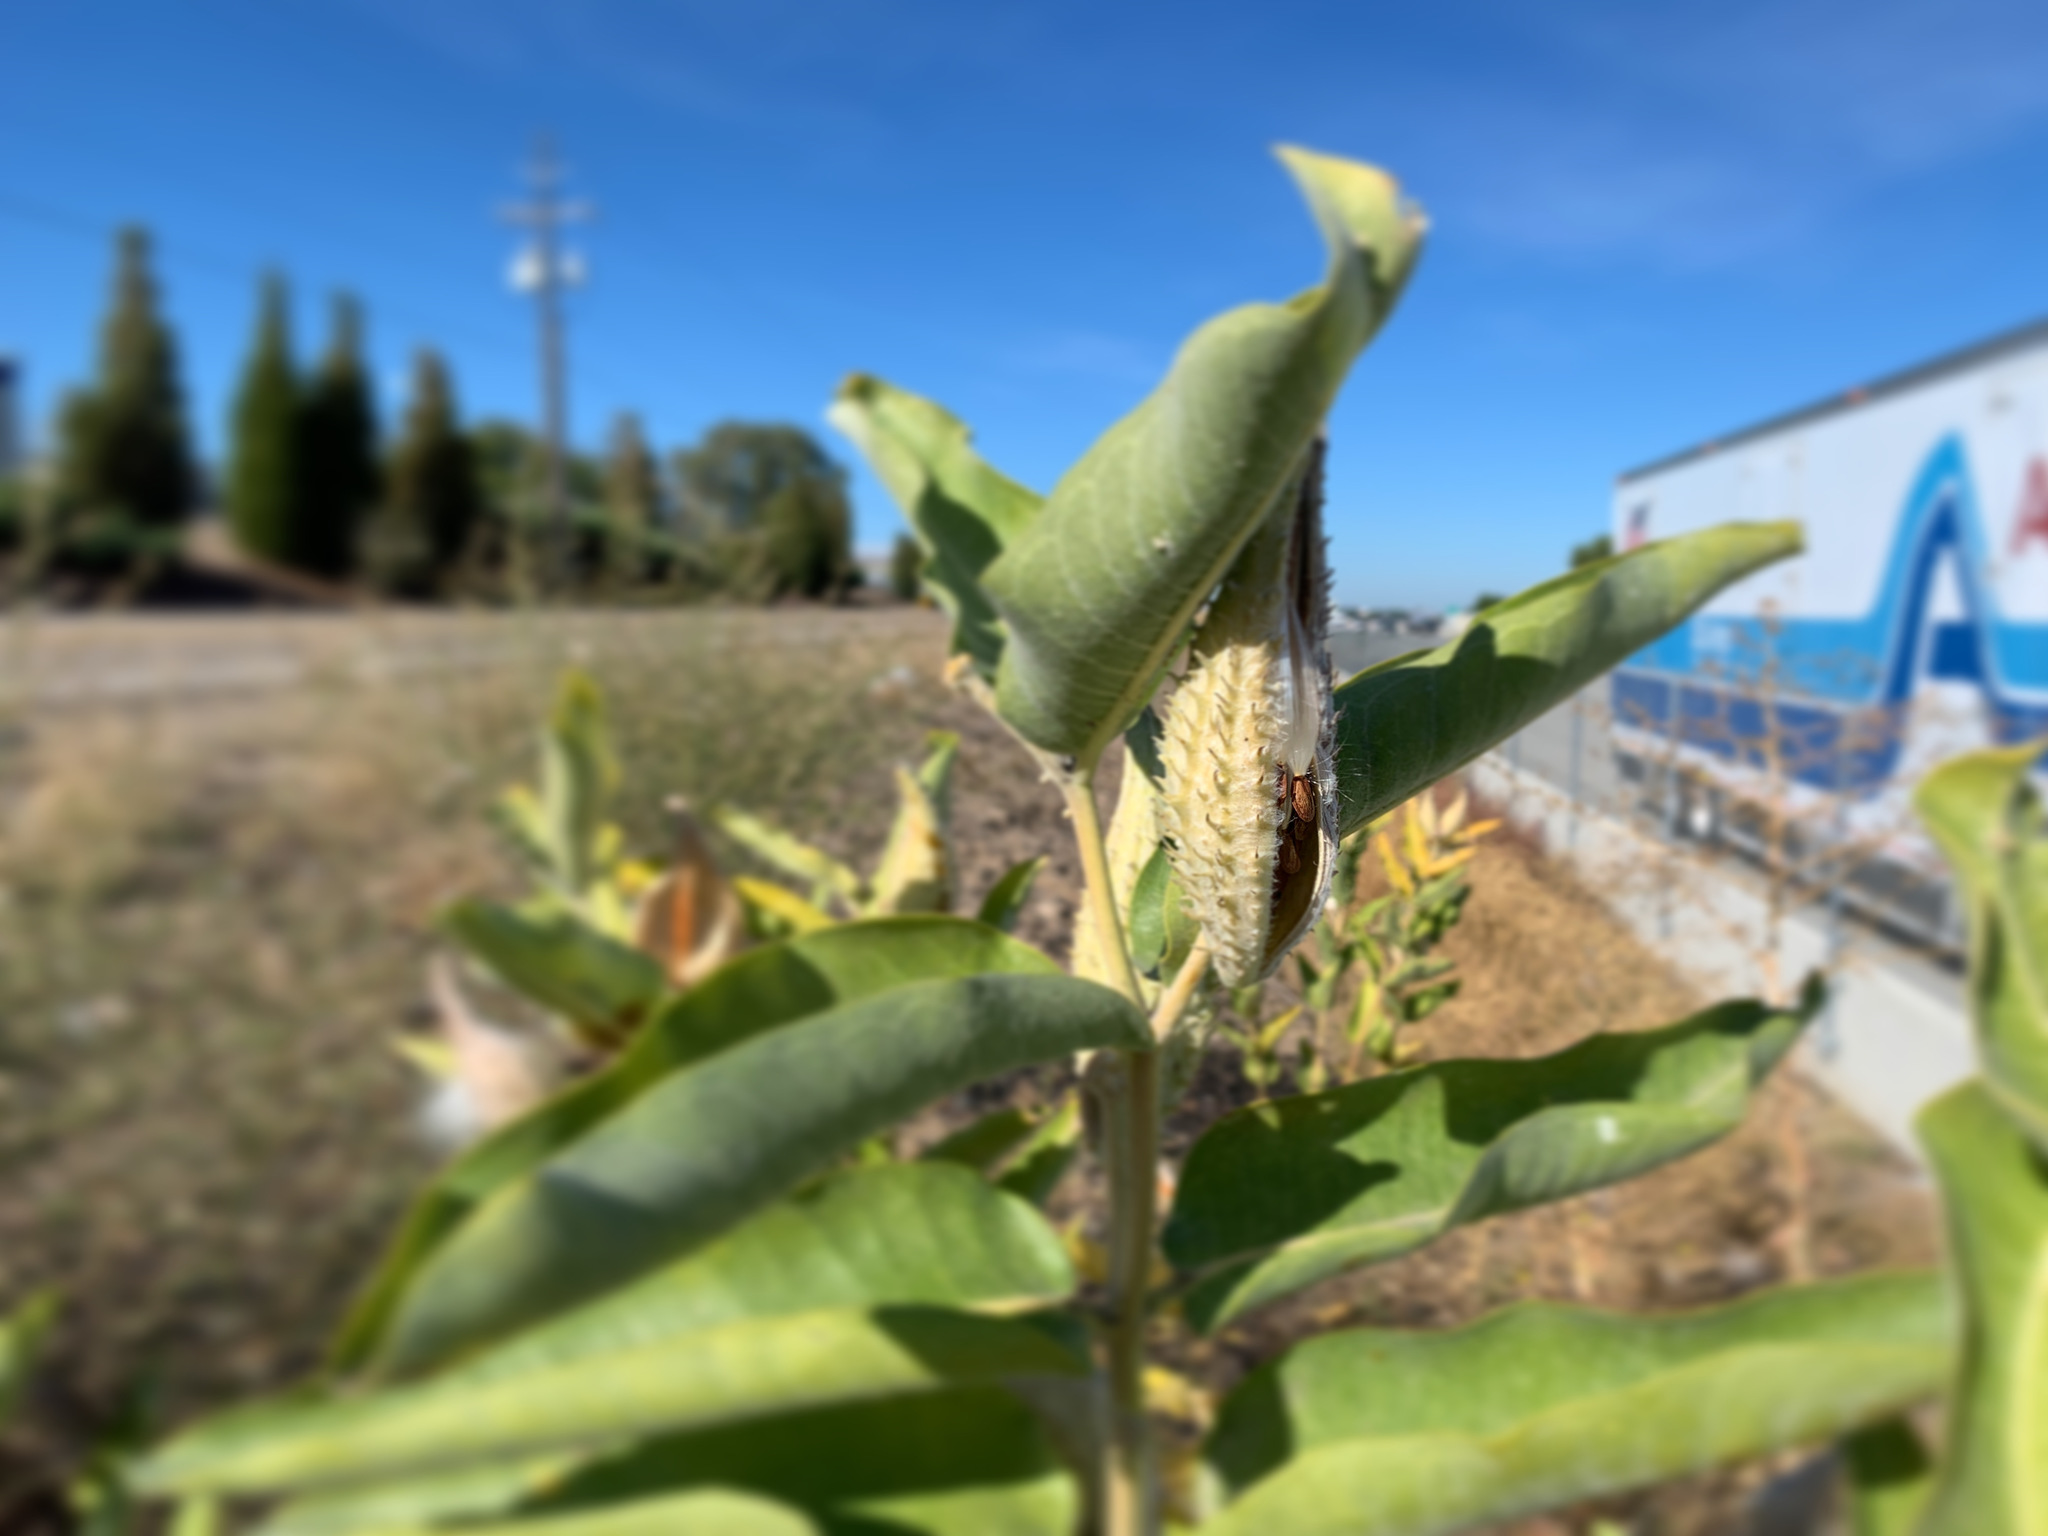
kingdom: Plantae
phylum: Tracheophyta
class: Magnoliopsida
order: Gentianales
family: Apocynaceae
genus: Asclepias
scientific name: Asclepias speciosa
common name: Showy milkweed
